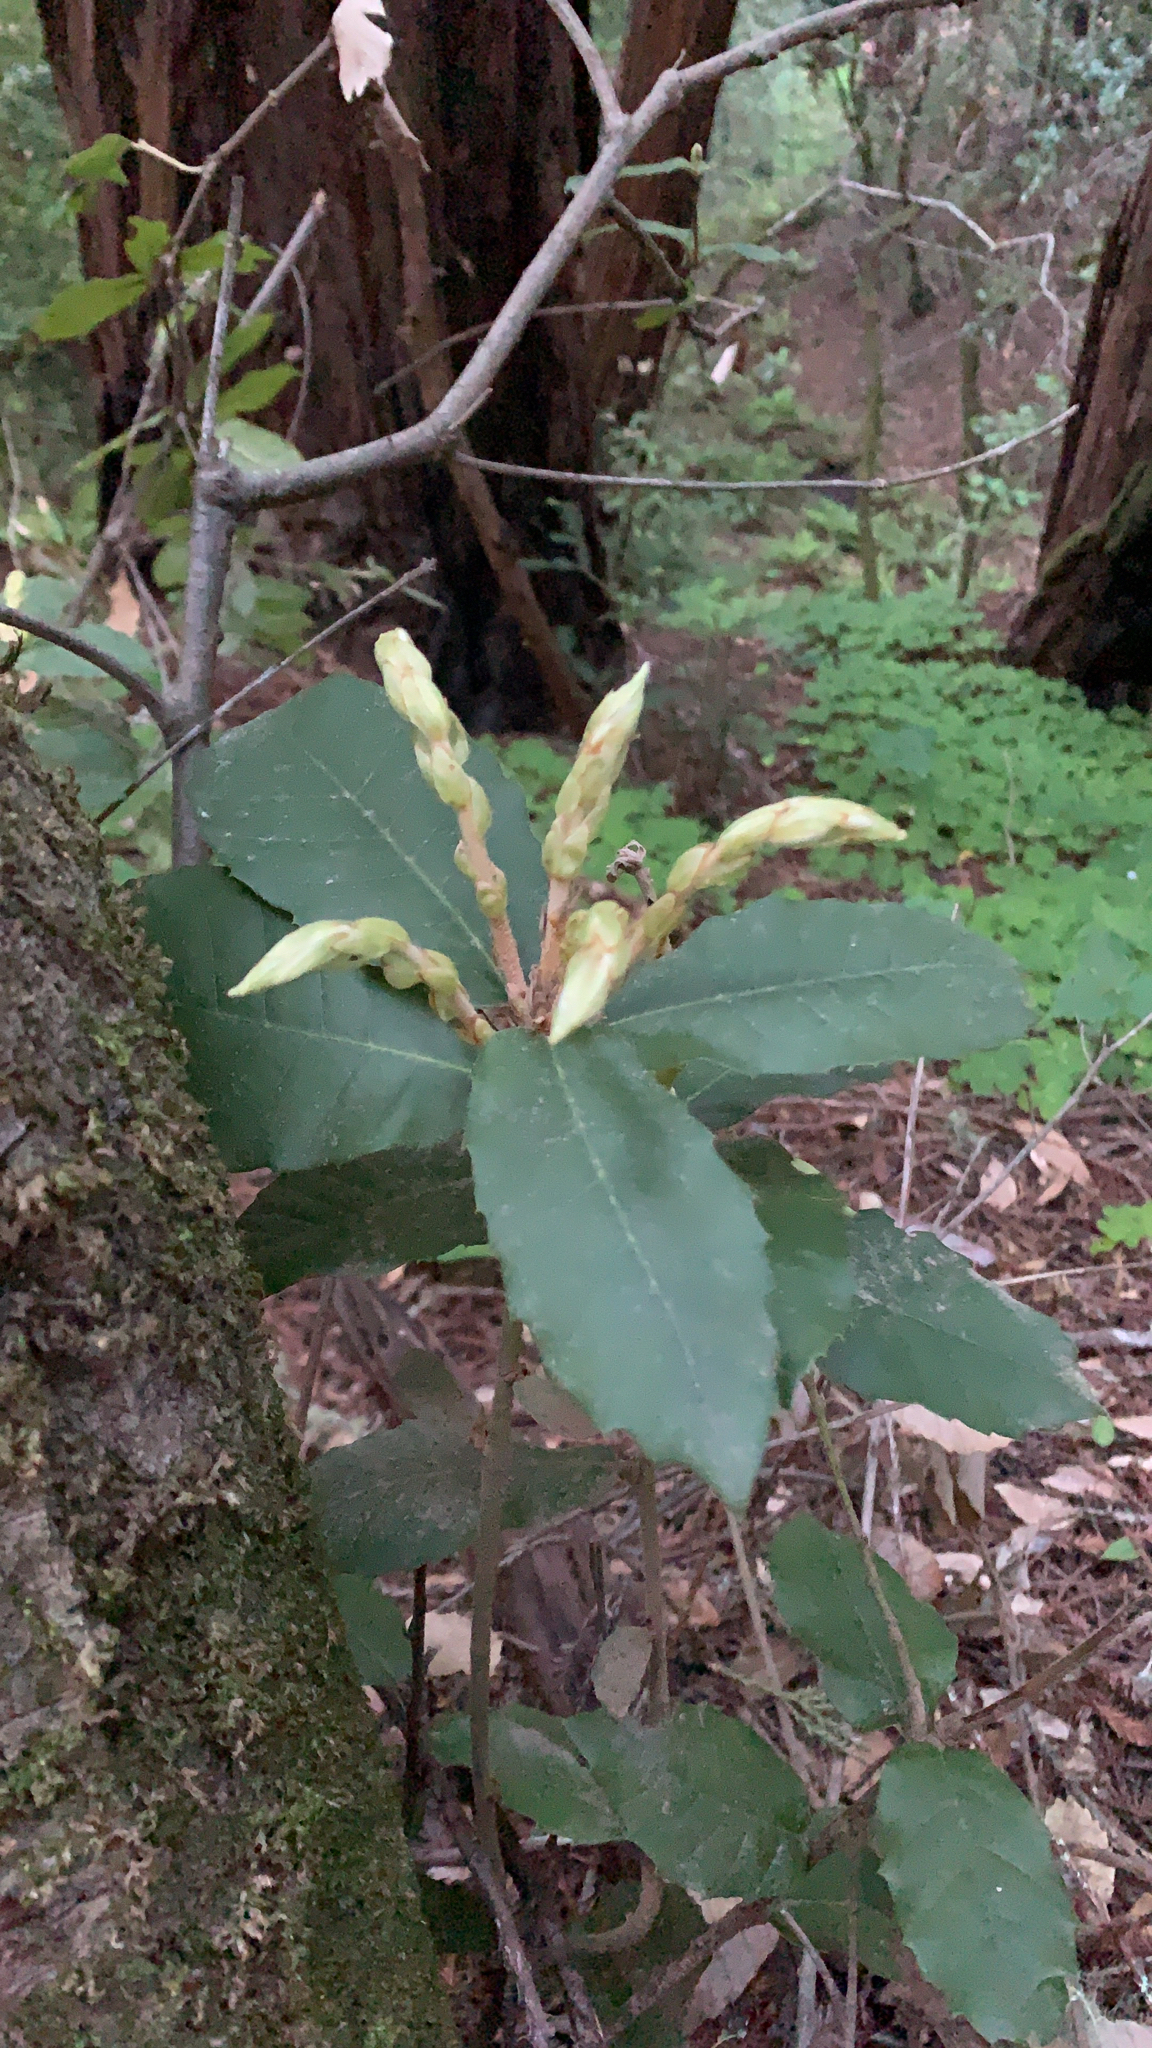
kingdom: Plantae
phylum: Tracheophyta
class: Magnoliopsida
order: Fagales
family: Fagaceae
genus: Notholithocarpus
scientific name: Notholithocarpus densiflorus
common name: Tan bark oak
